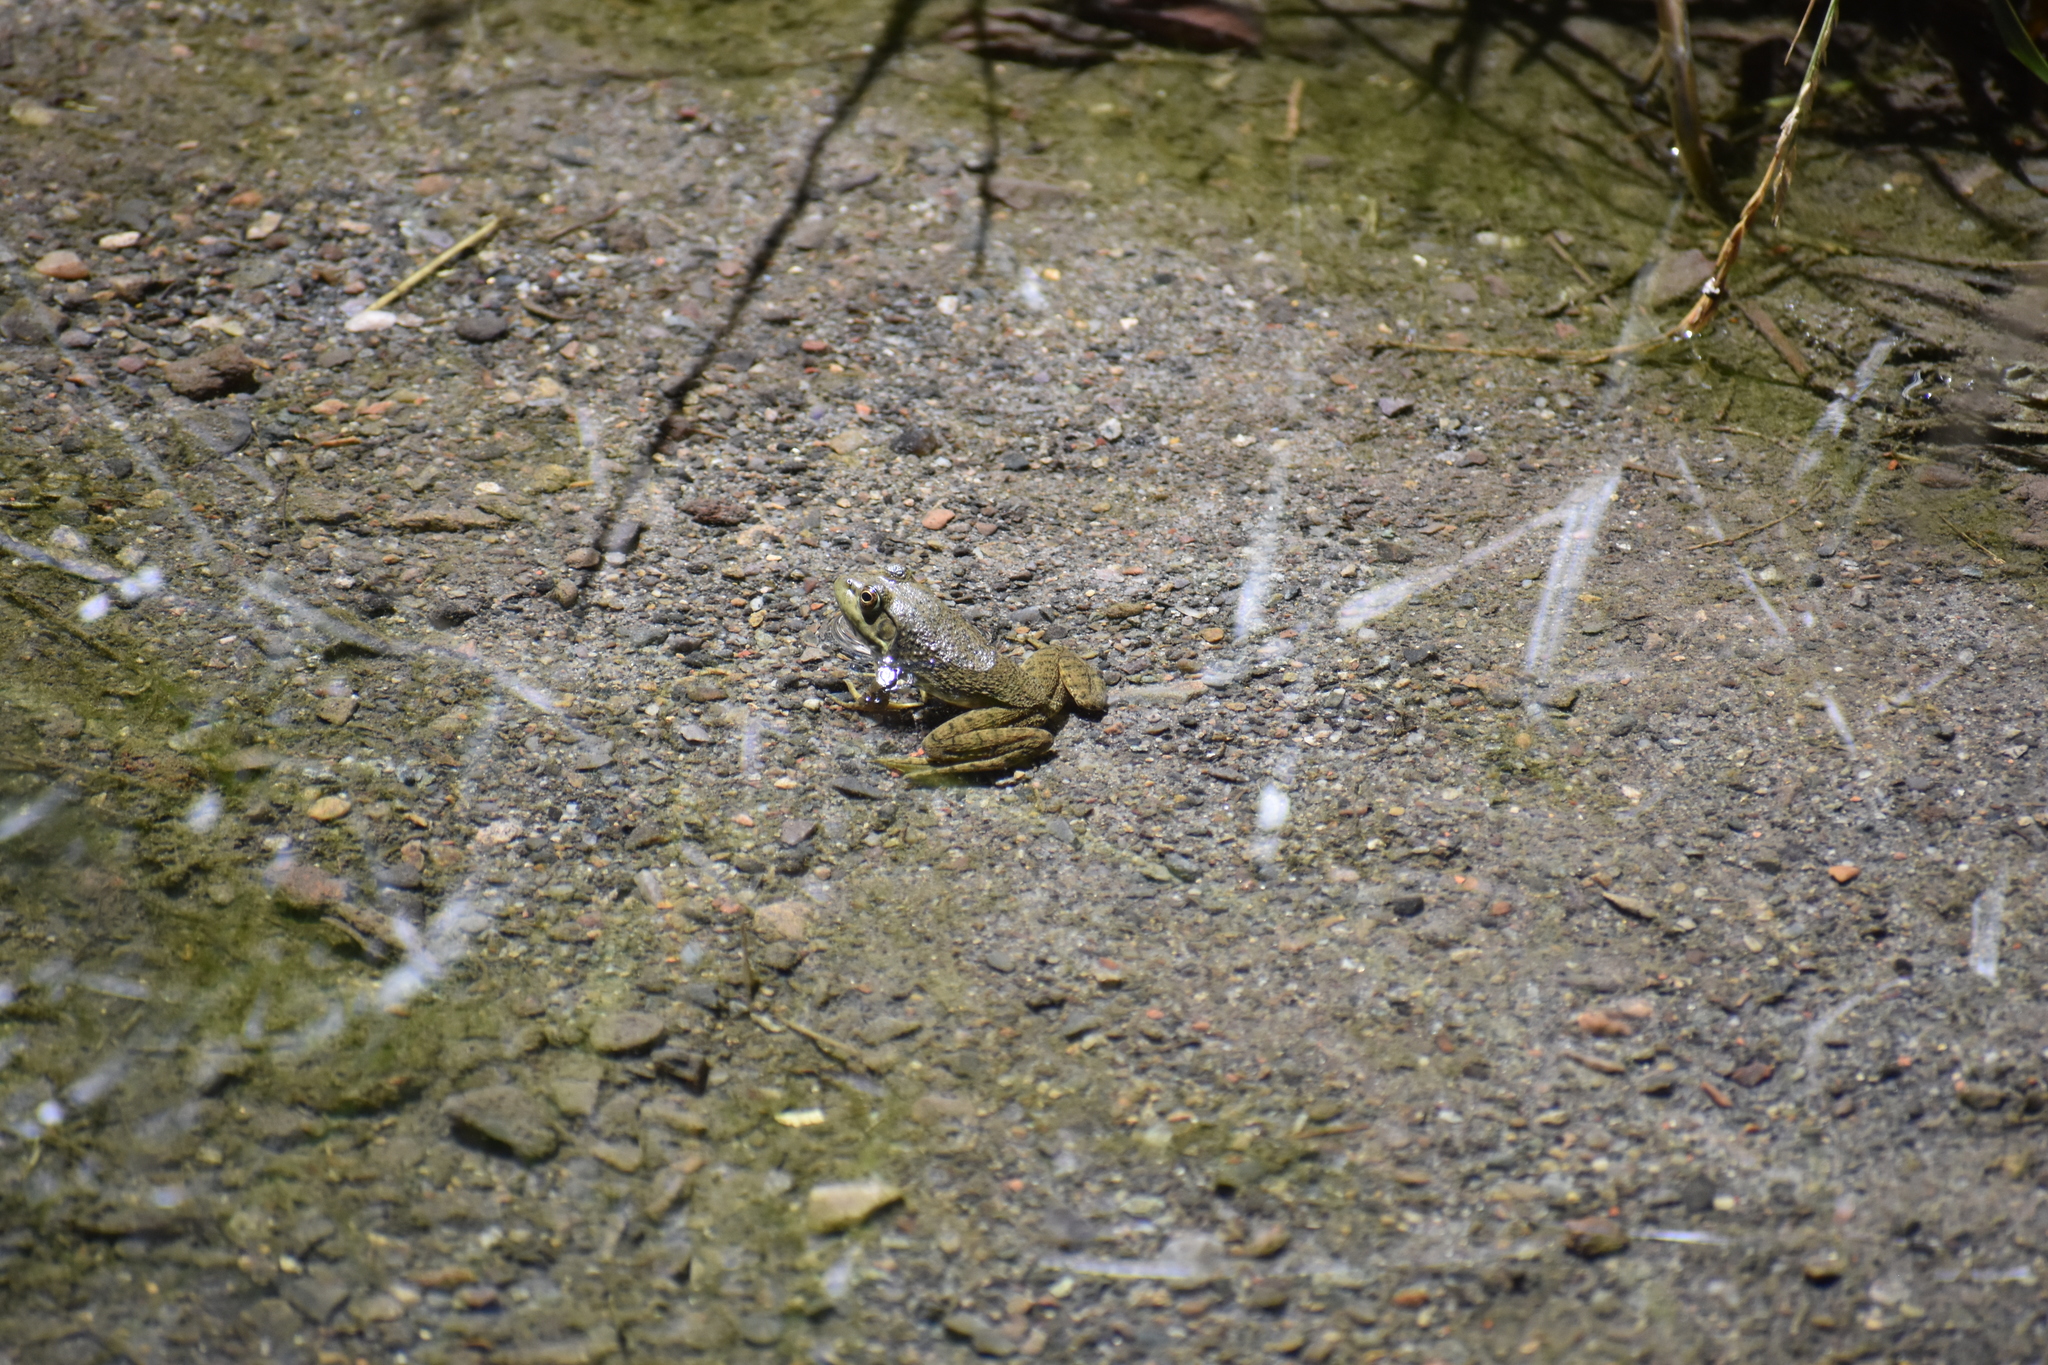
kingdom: Animalia
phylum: Chordata
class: Amphibia
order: Anura
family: Ranidae
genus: Lithobates
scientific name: Lithobates catesbeianus
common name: American bullfrog
